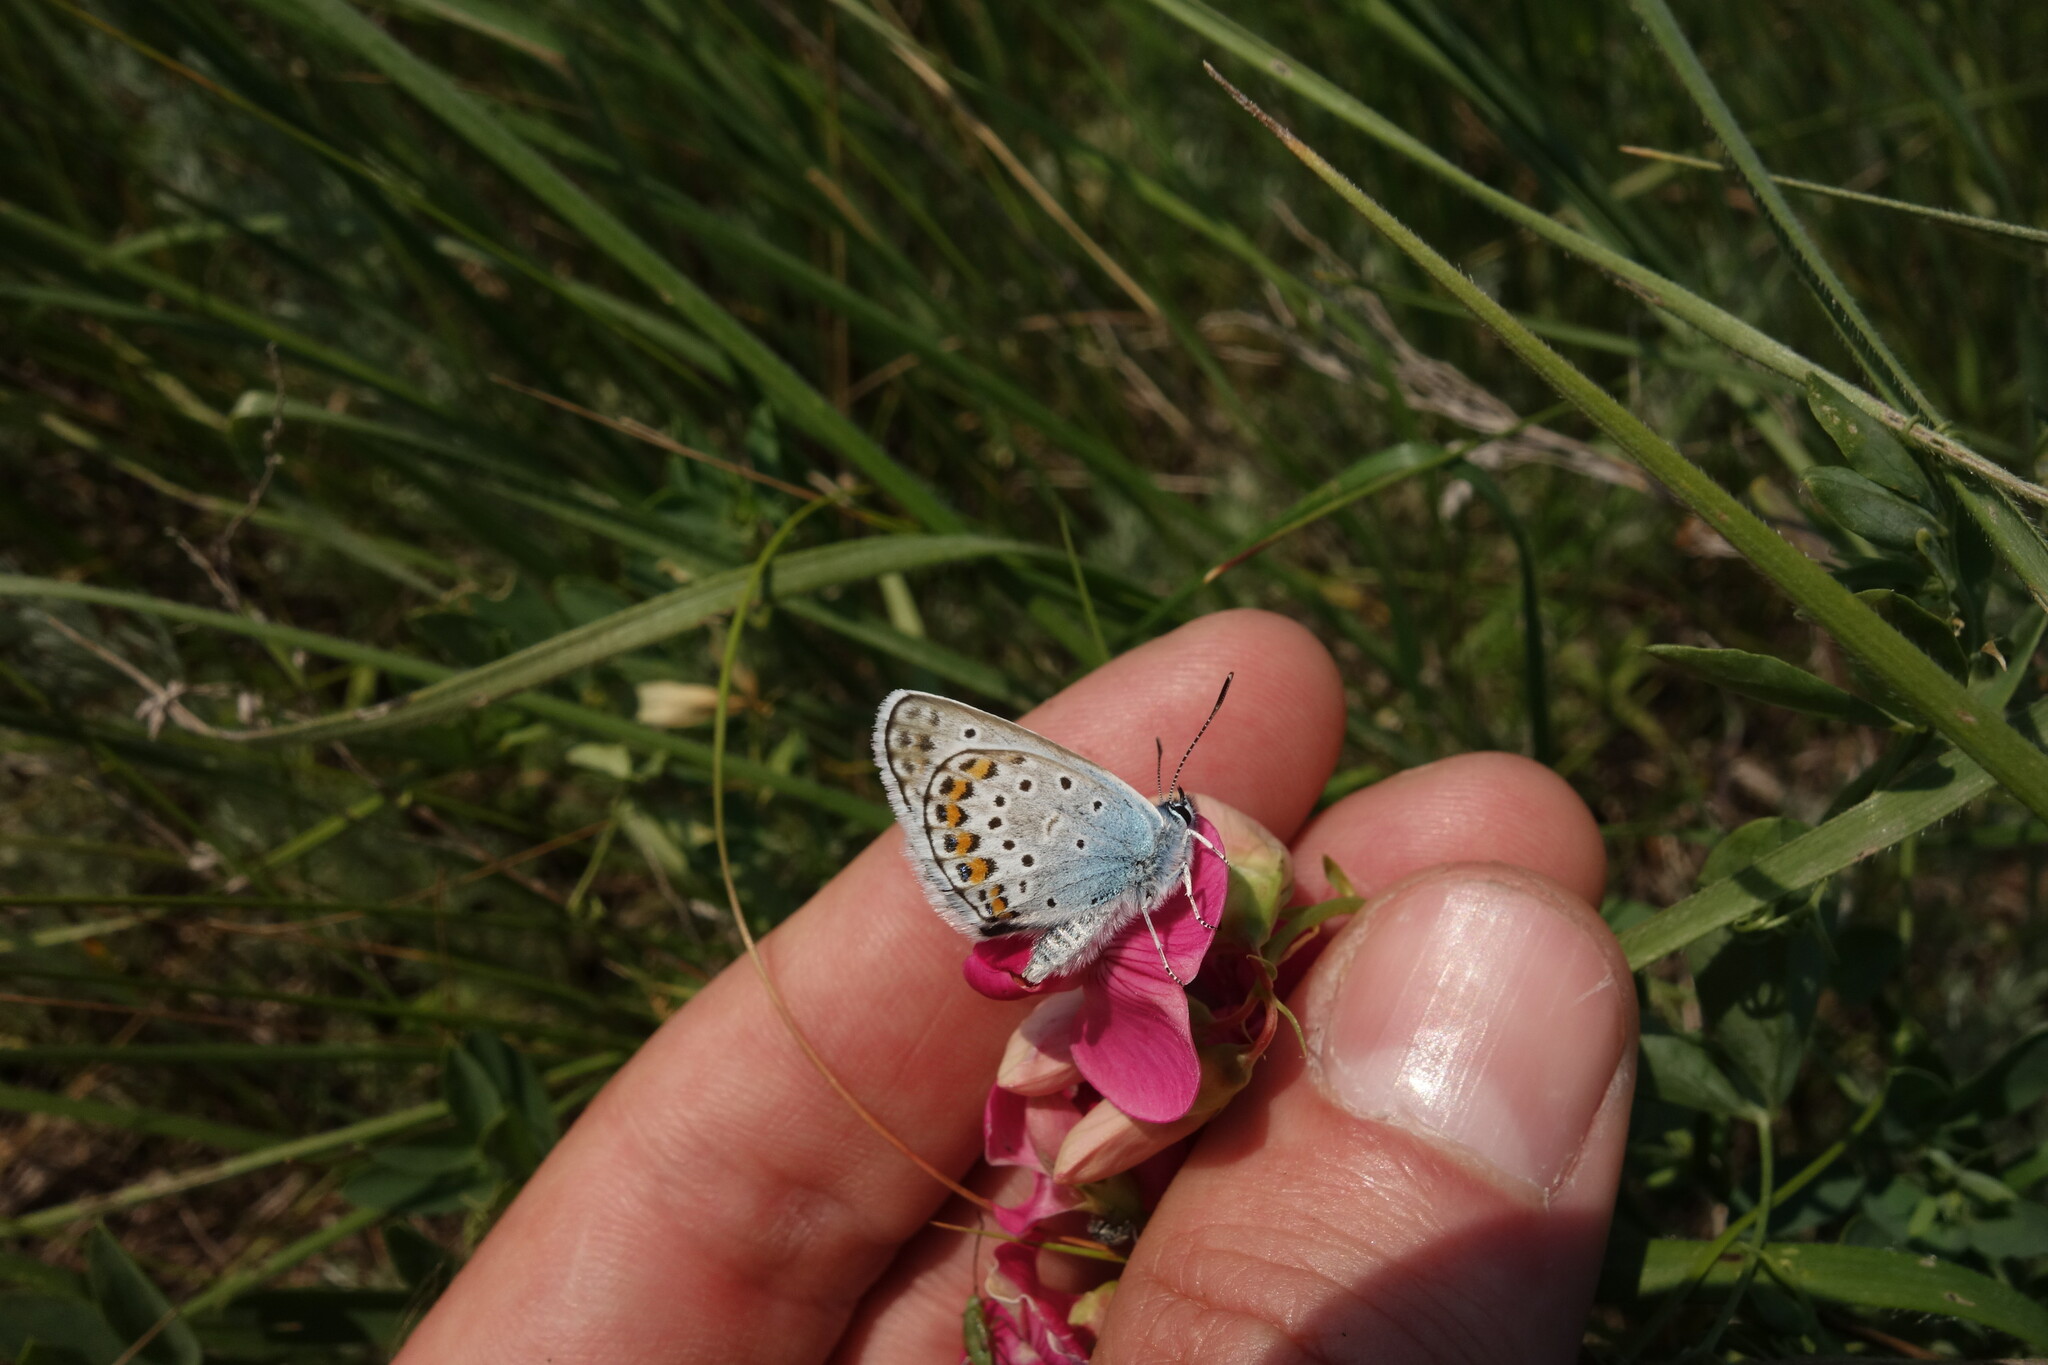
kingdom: Animalia
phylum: Arthropoda
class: Insecta
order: Lepidoptera
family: Lycaenidae
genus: Plebejus
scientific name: Plebejus argus
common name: Silver-studded blue
